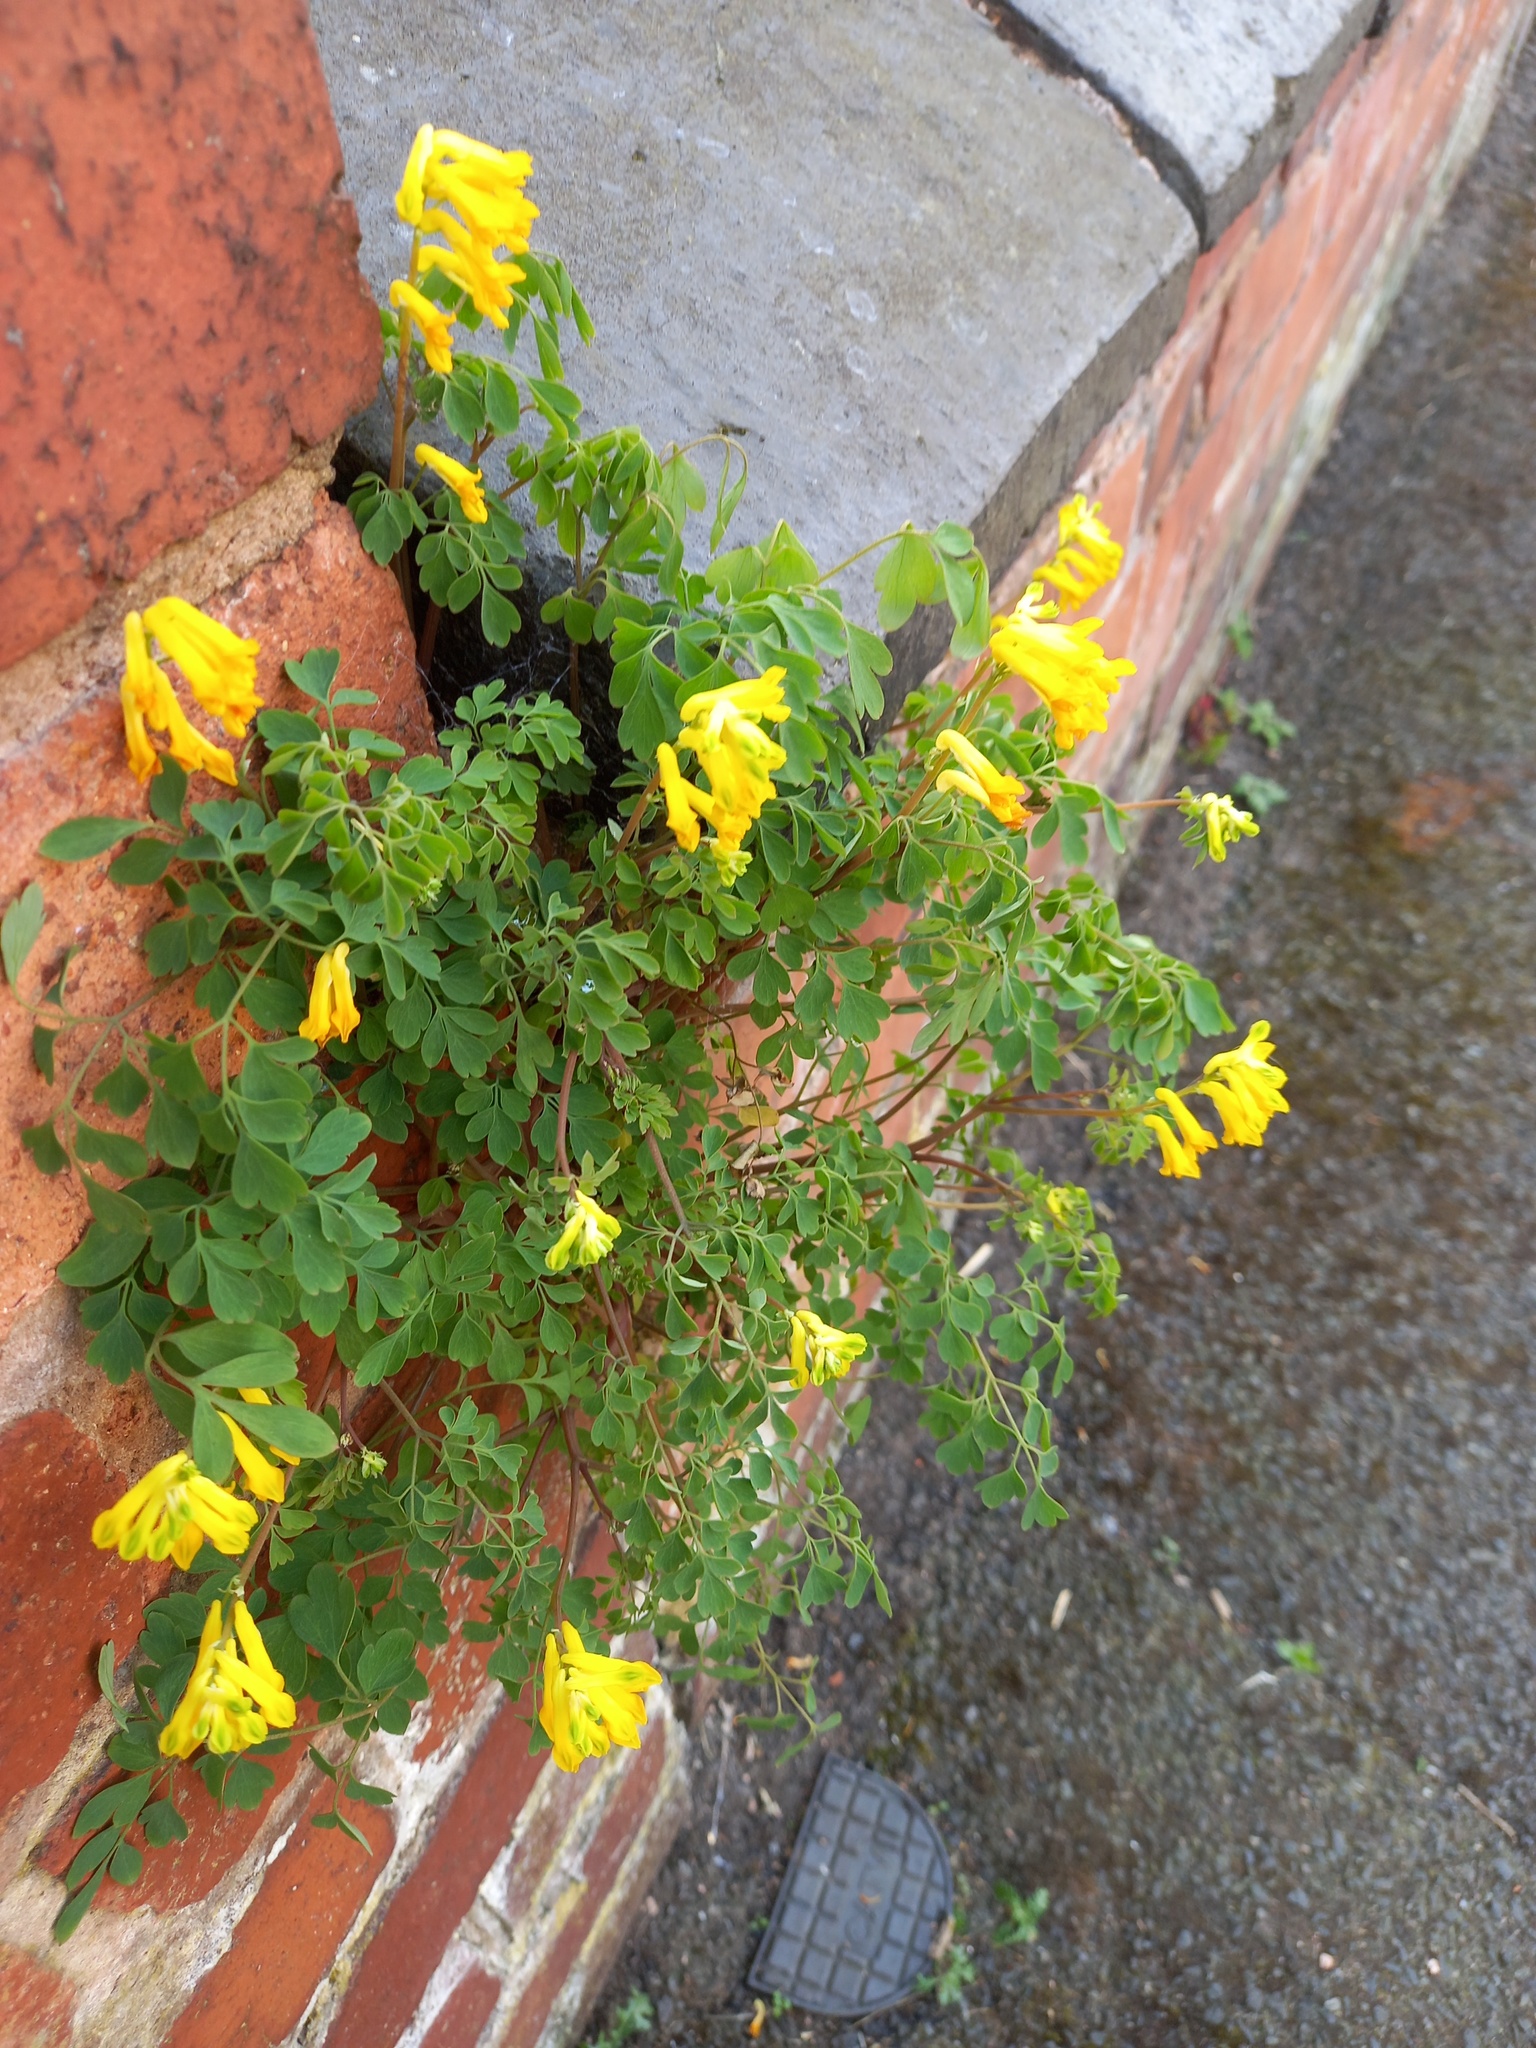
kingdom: Plantae
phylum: Tracheophyta
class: Magnoliopsida
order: Ranunculales
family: Papaveraceae
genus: Pseudofumaria
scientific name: Pseudofumaria lutea
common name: Yellow corydalis
